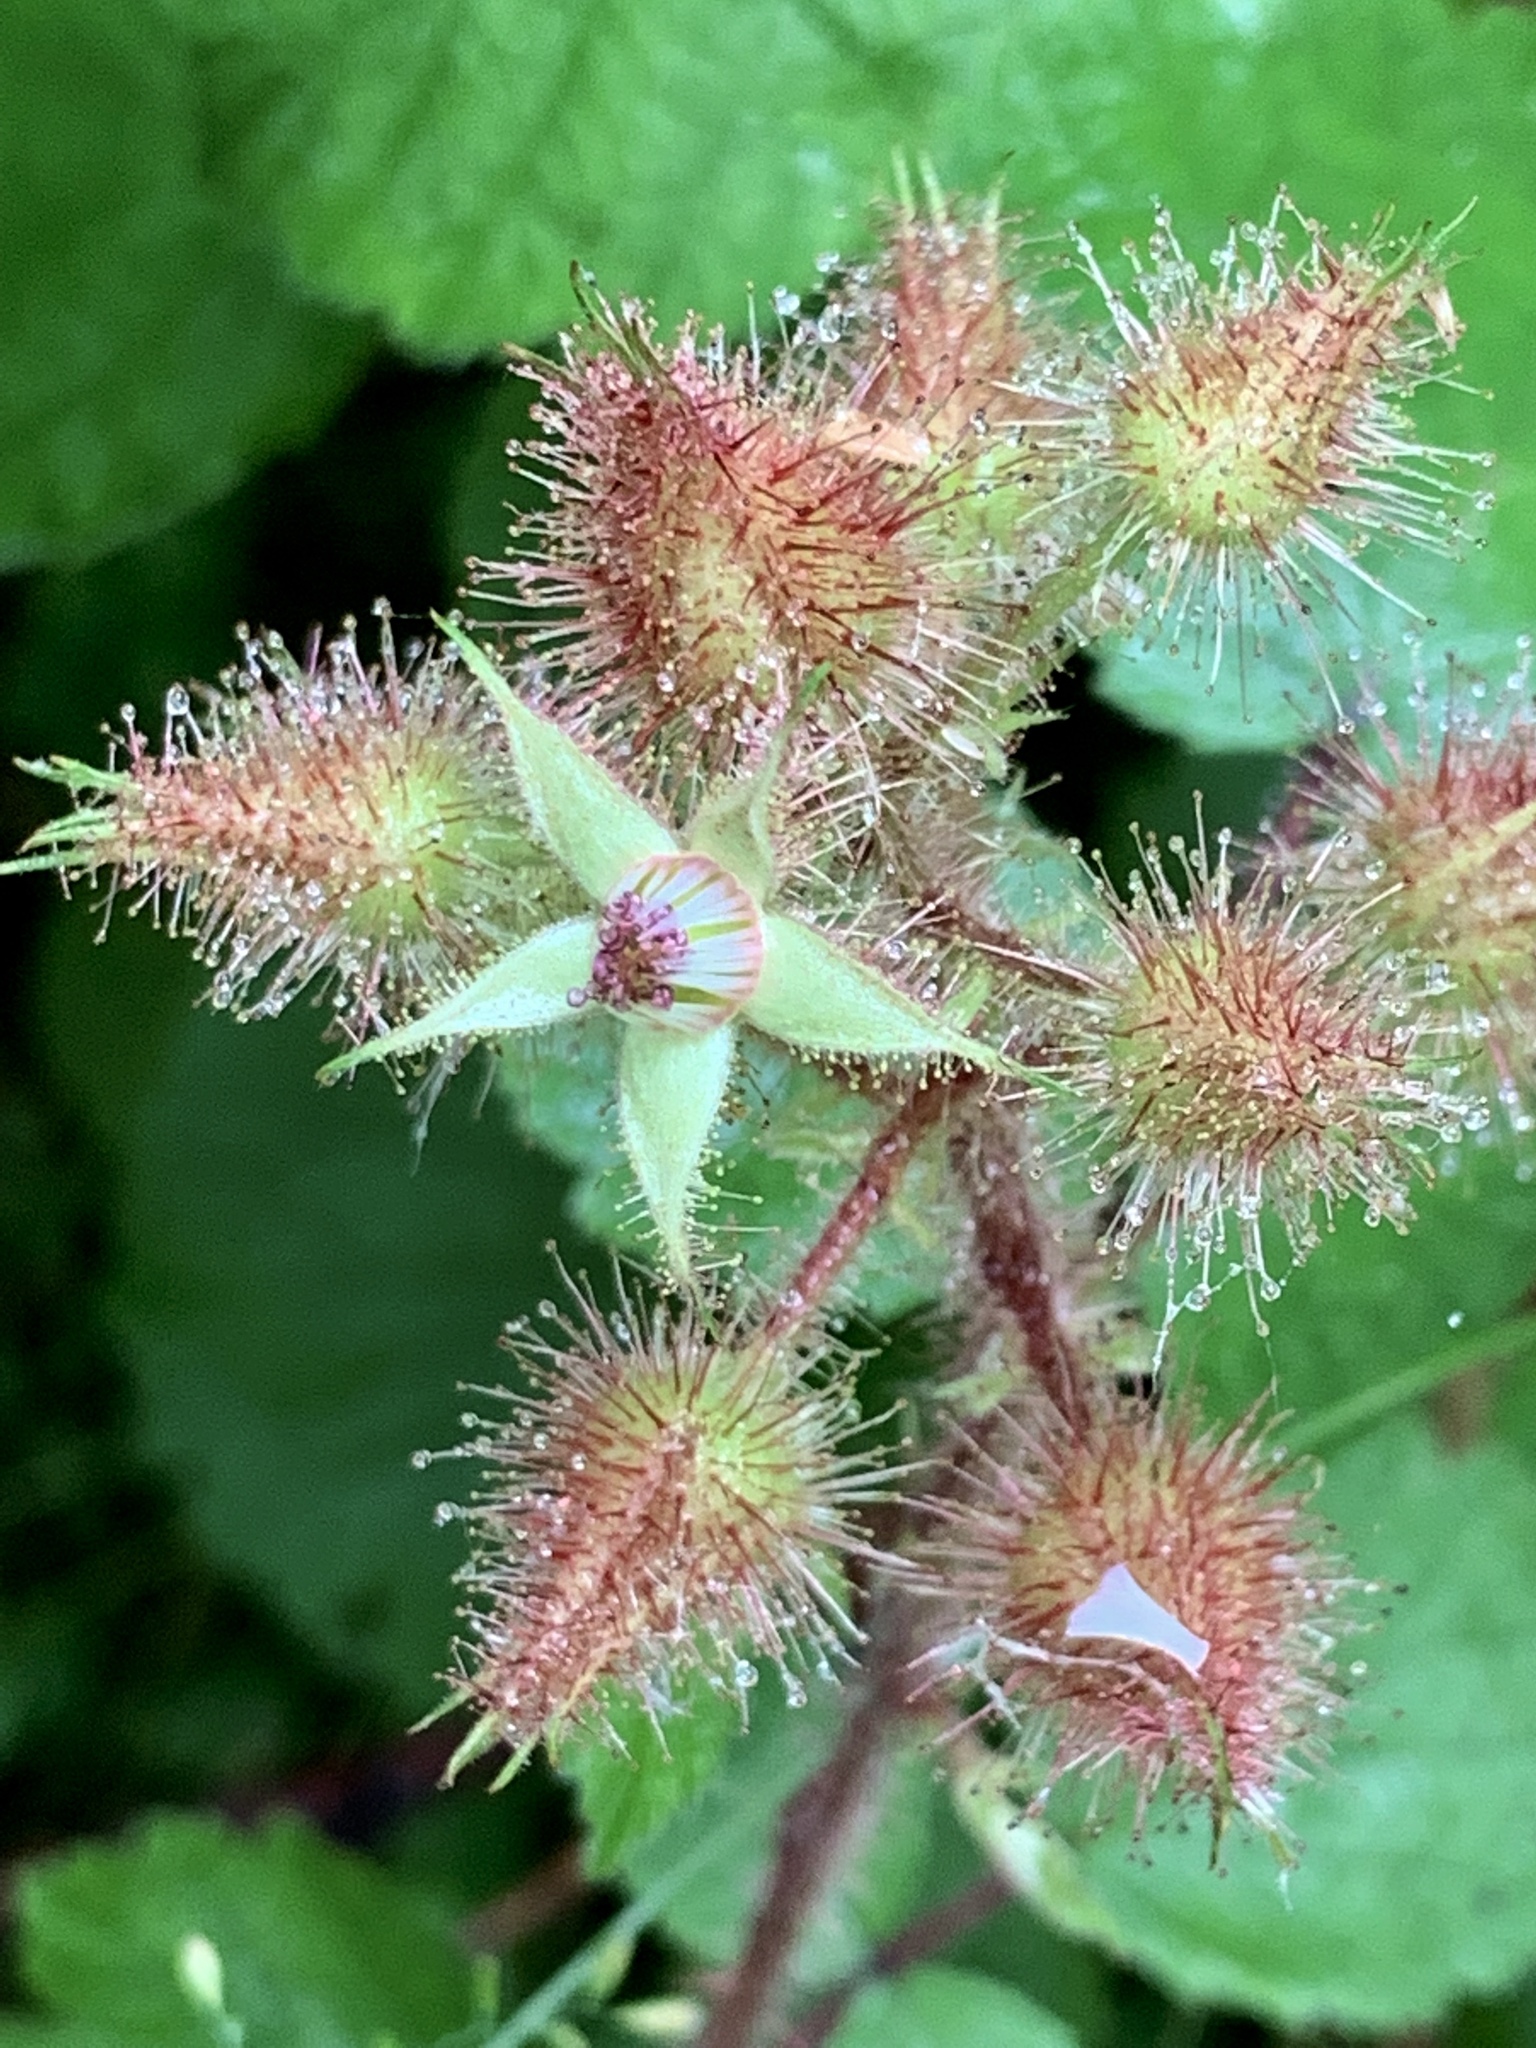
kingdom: Plantae
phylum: Tracheophyta
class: Magnoliopsida
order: Rosales
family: Rosaceae
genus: Rubus
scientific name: Rubus phoenicolasius
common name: Japanese wineberry
